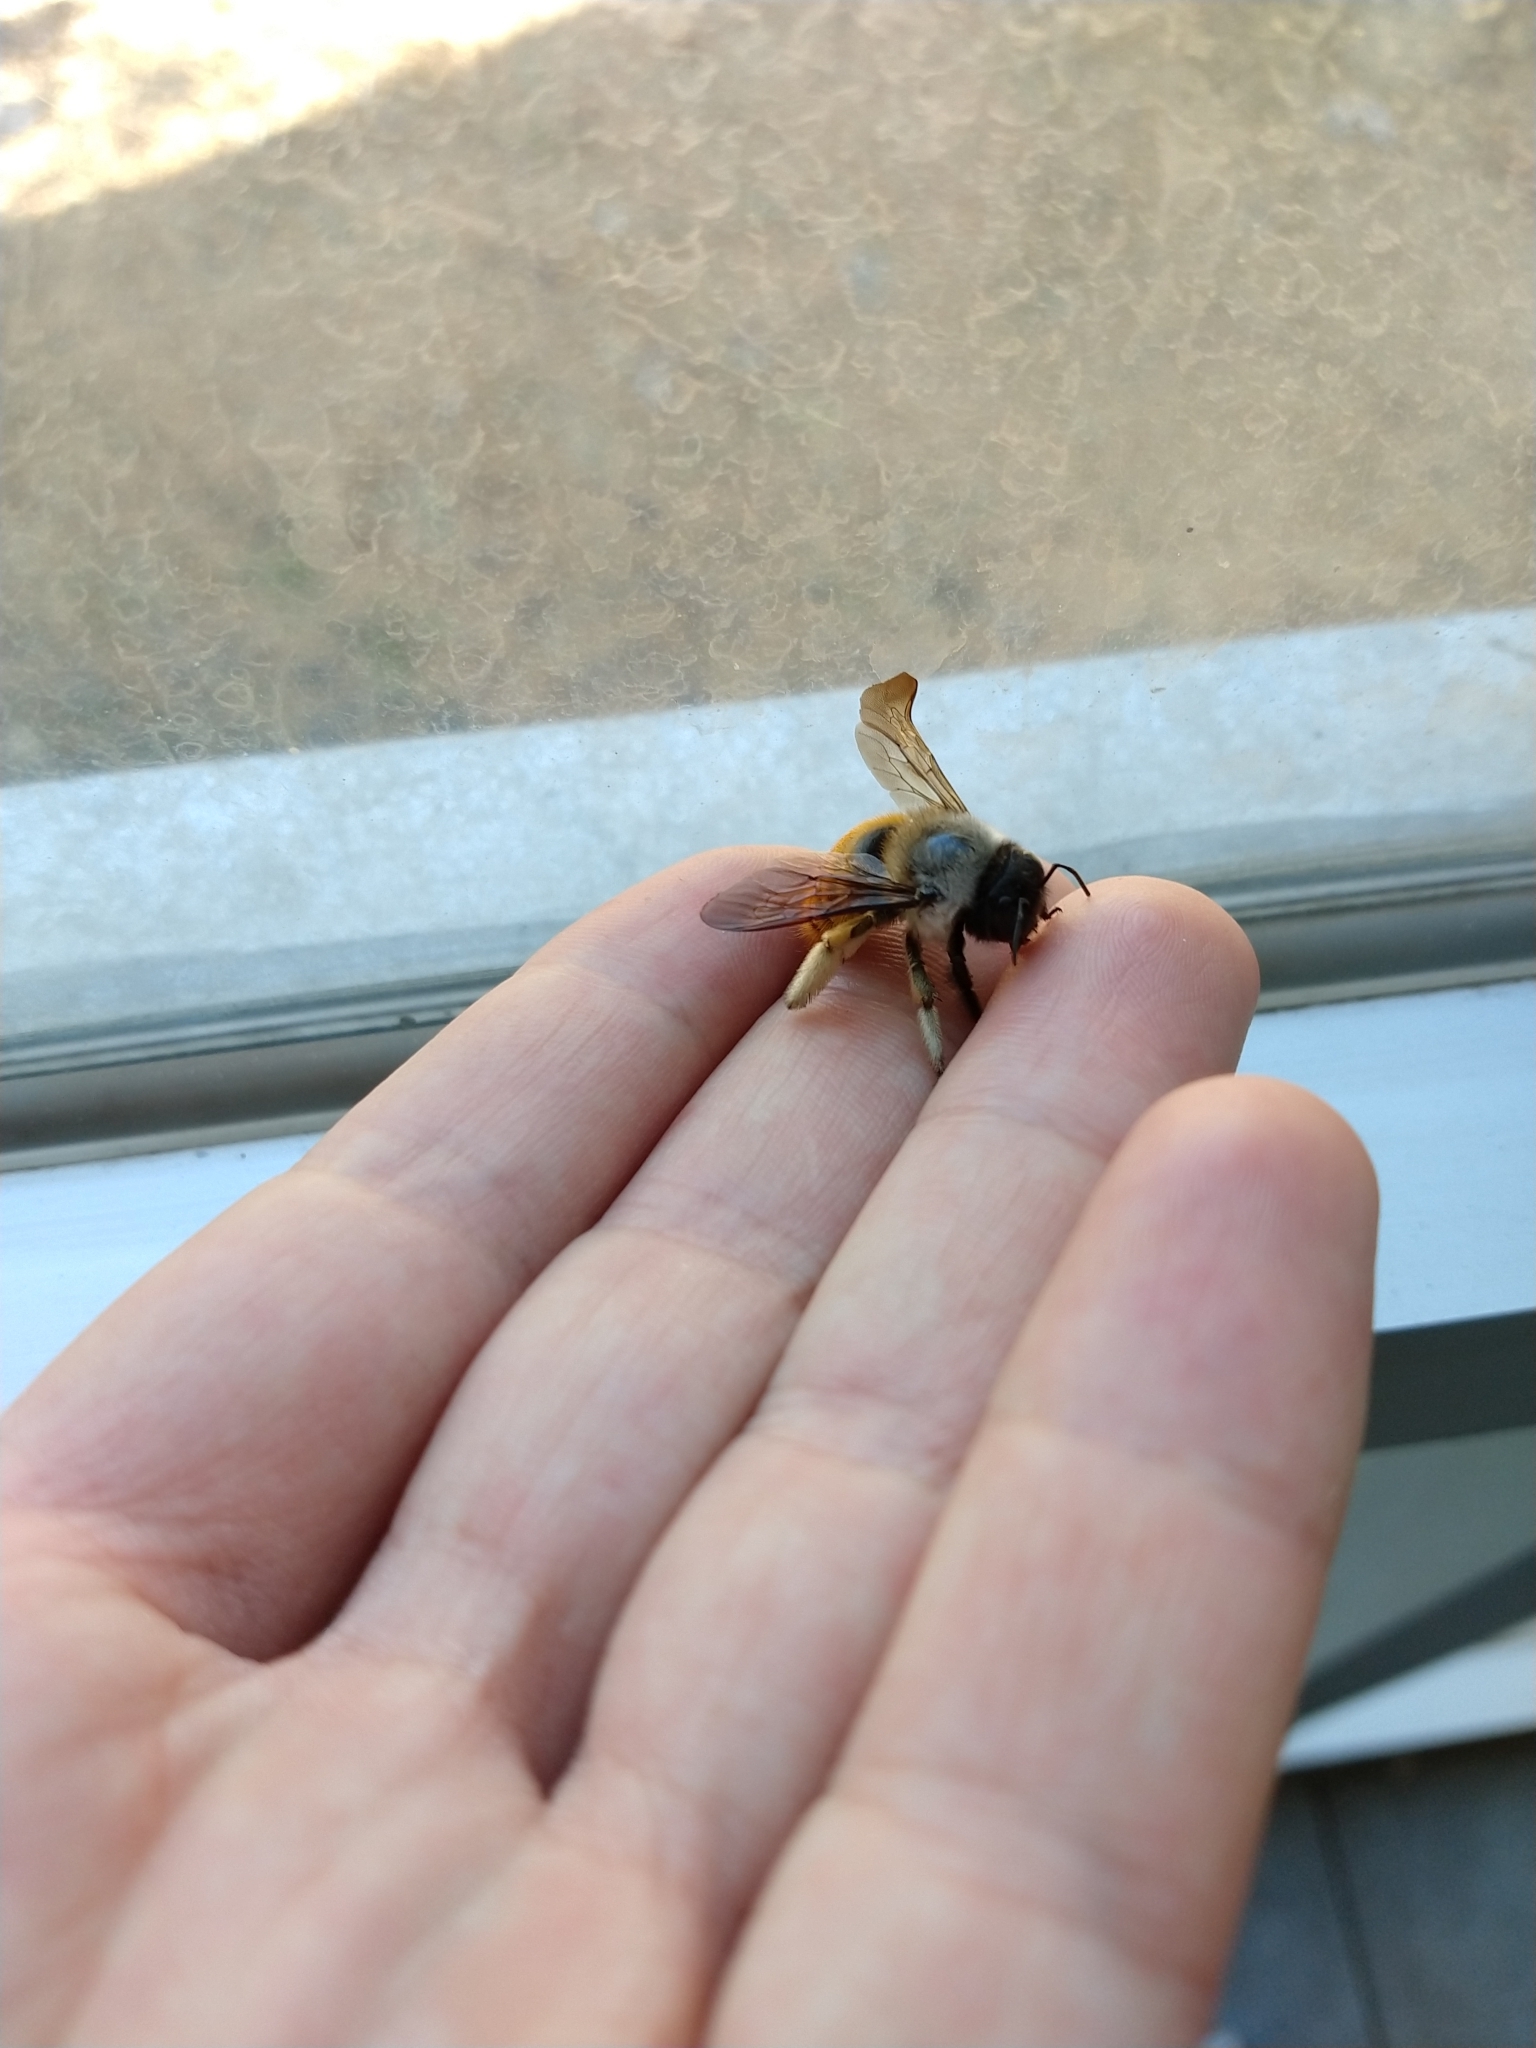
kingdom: Animalia
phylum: Arthropoda
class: Insecta
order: Hymenoptera
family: Apidae
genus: Xylocopa
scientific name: Xylocopa tabaniformis
